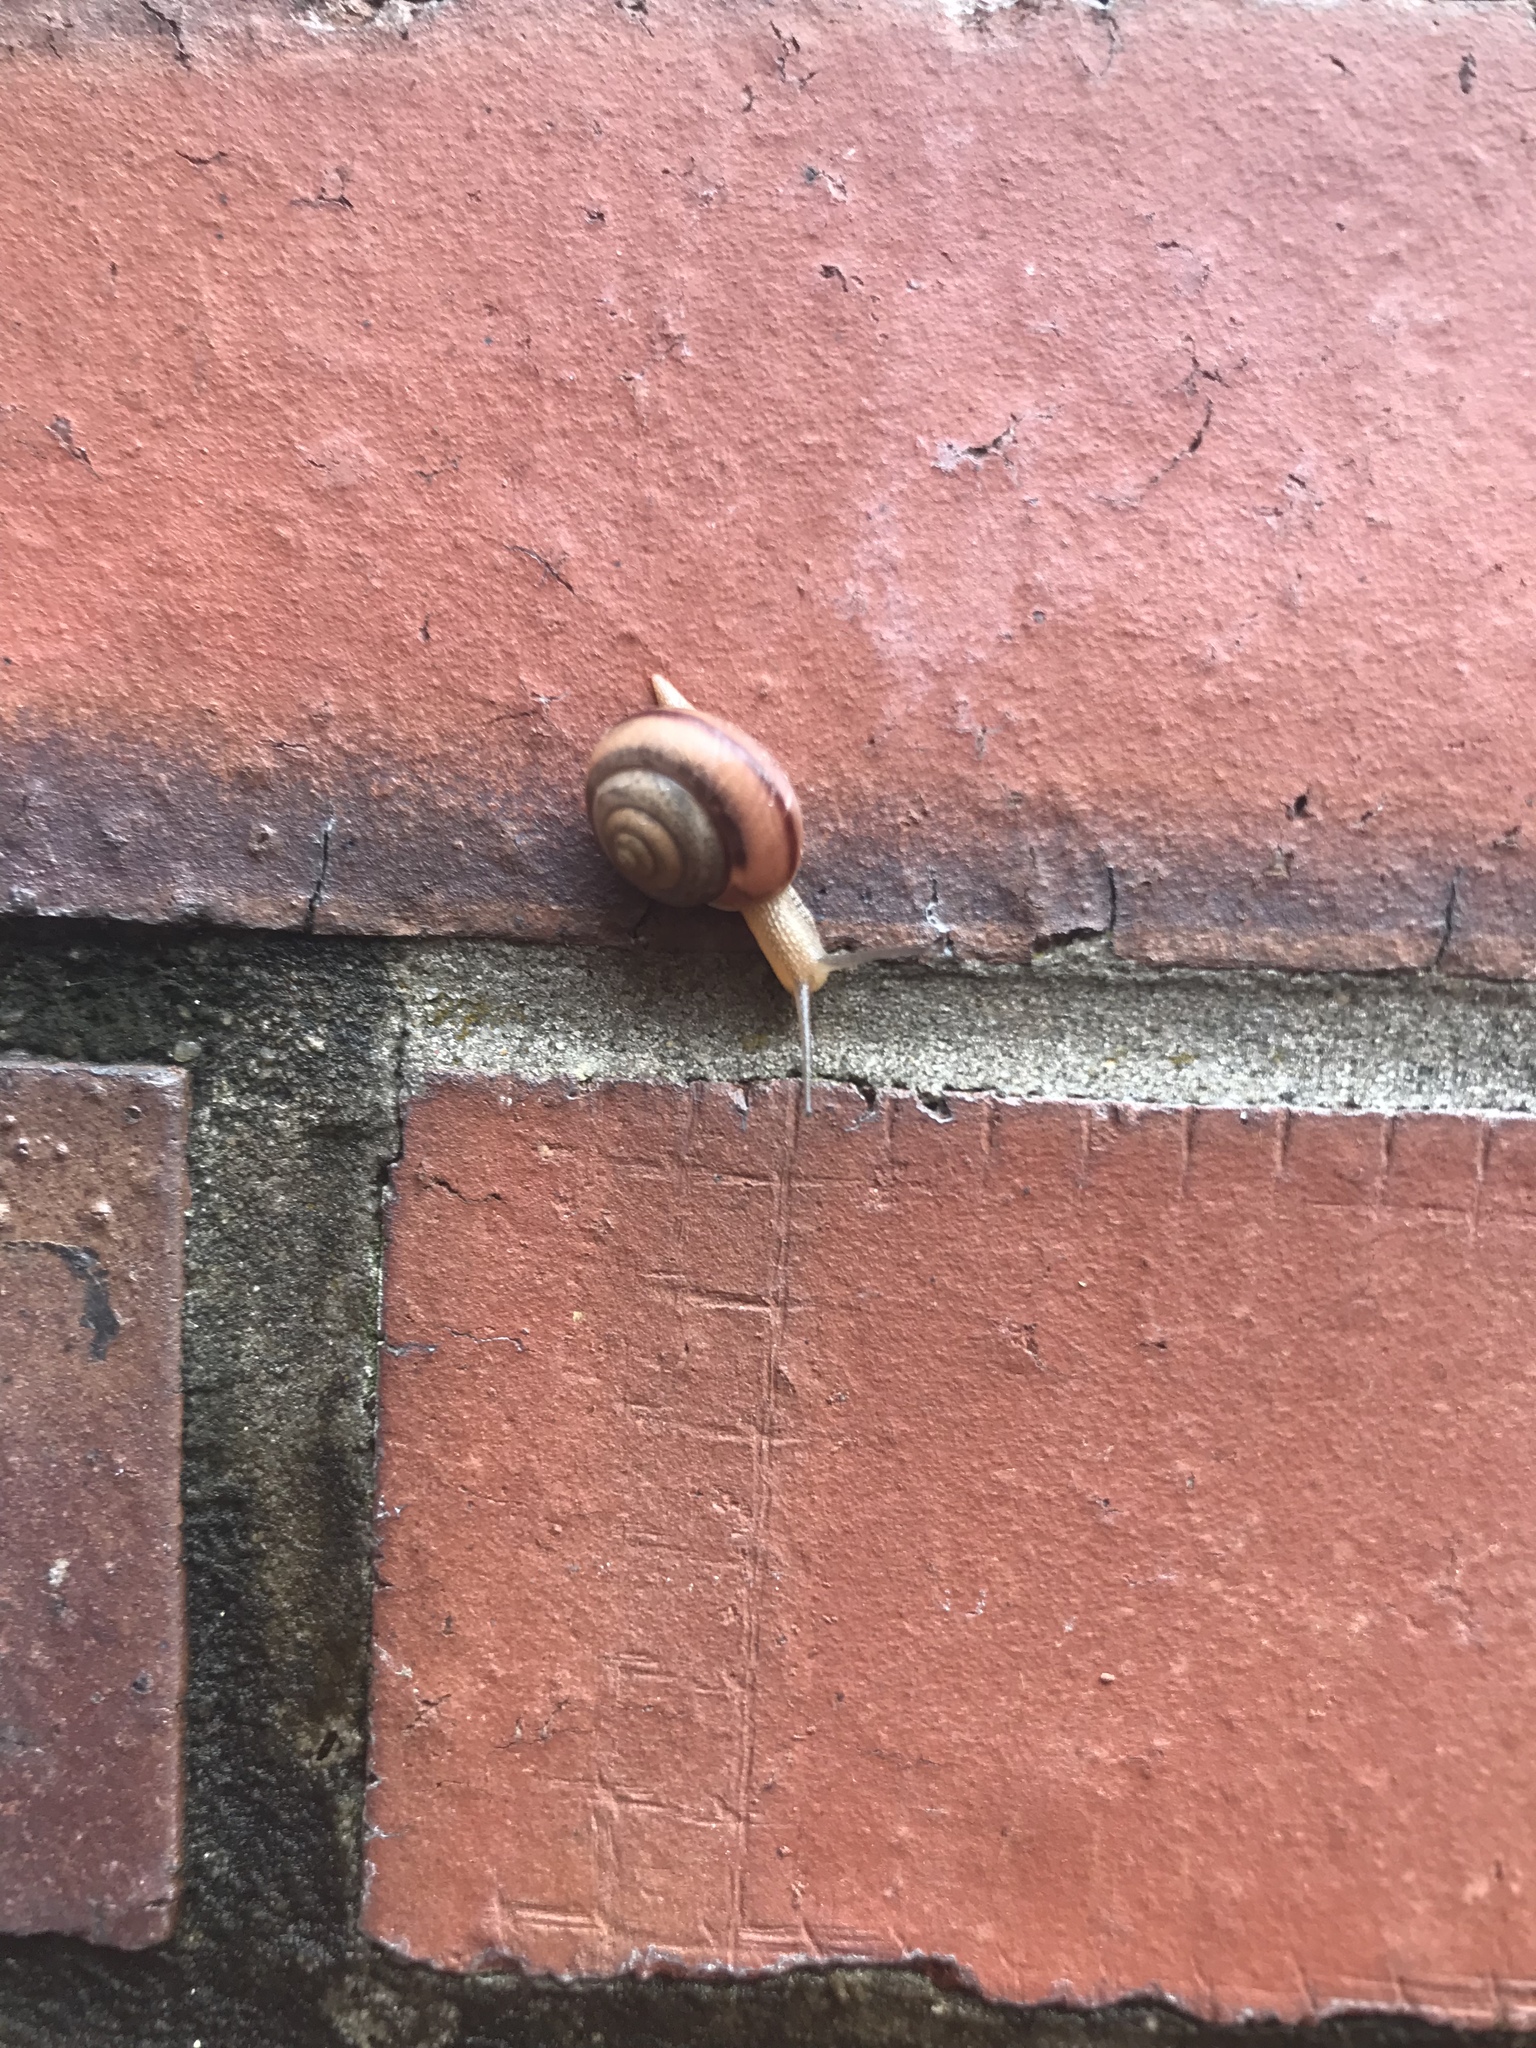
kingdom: Animalia
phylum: Mollusca
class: Gastropoda
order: Stylommatophora
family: Camaenidae
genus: Bradybaena
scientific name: Bradybaena similaris
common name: Asian trampsnail
